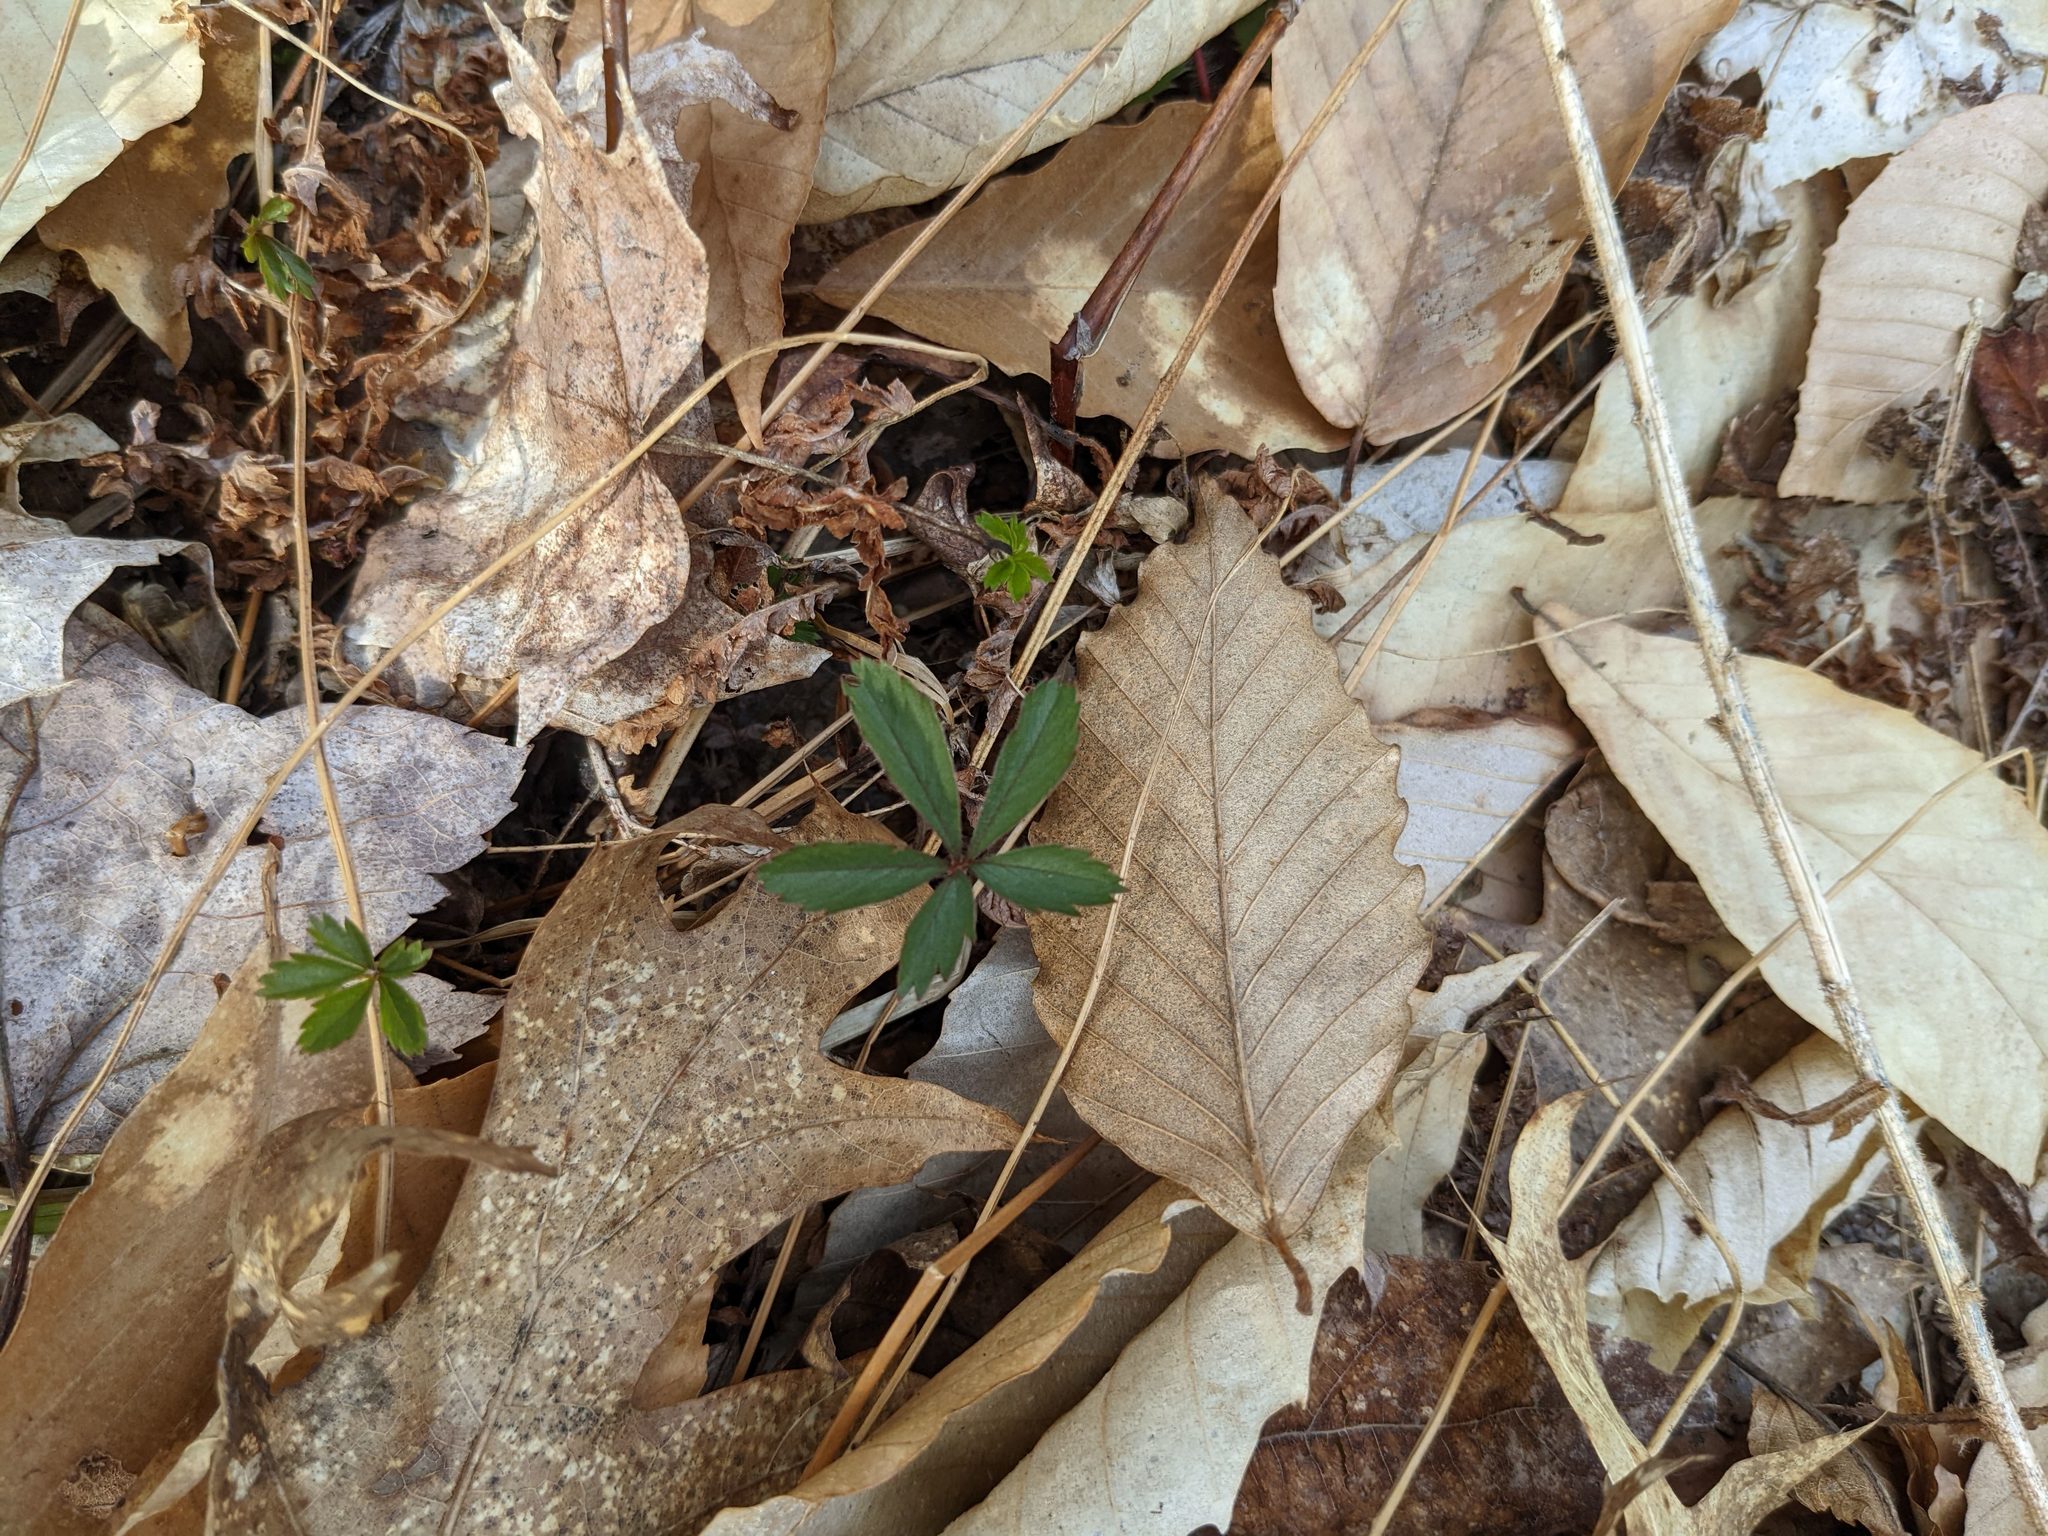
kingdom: Plantae
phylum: Tracheophyta
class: Magnoliopsida
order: Fagales
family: Fagaceae
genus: Fagus
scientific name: Fagus grandifolia
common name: American beech
